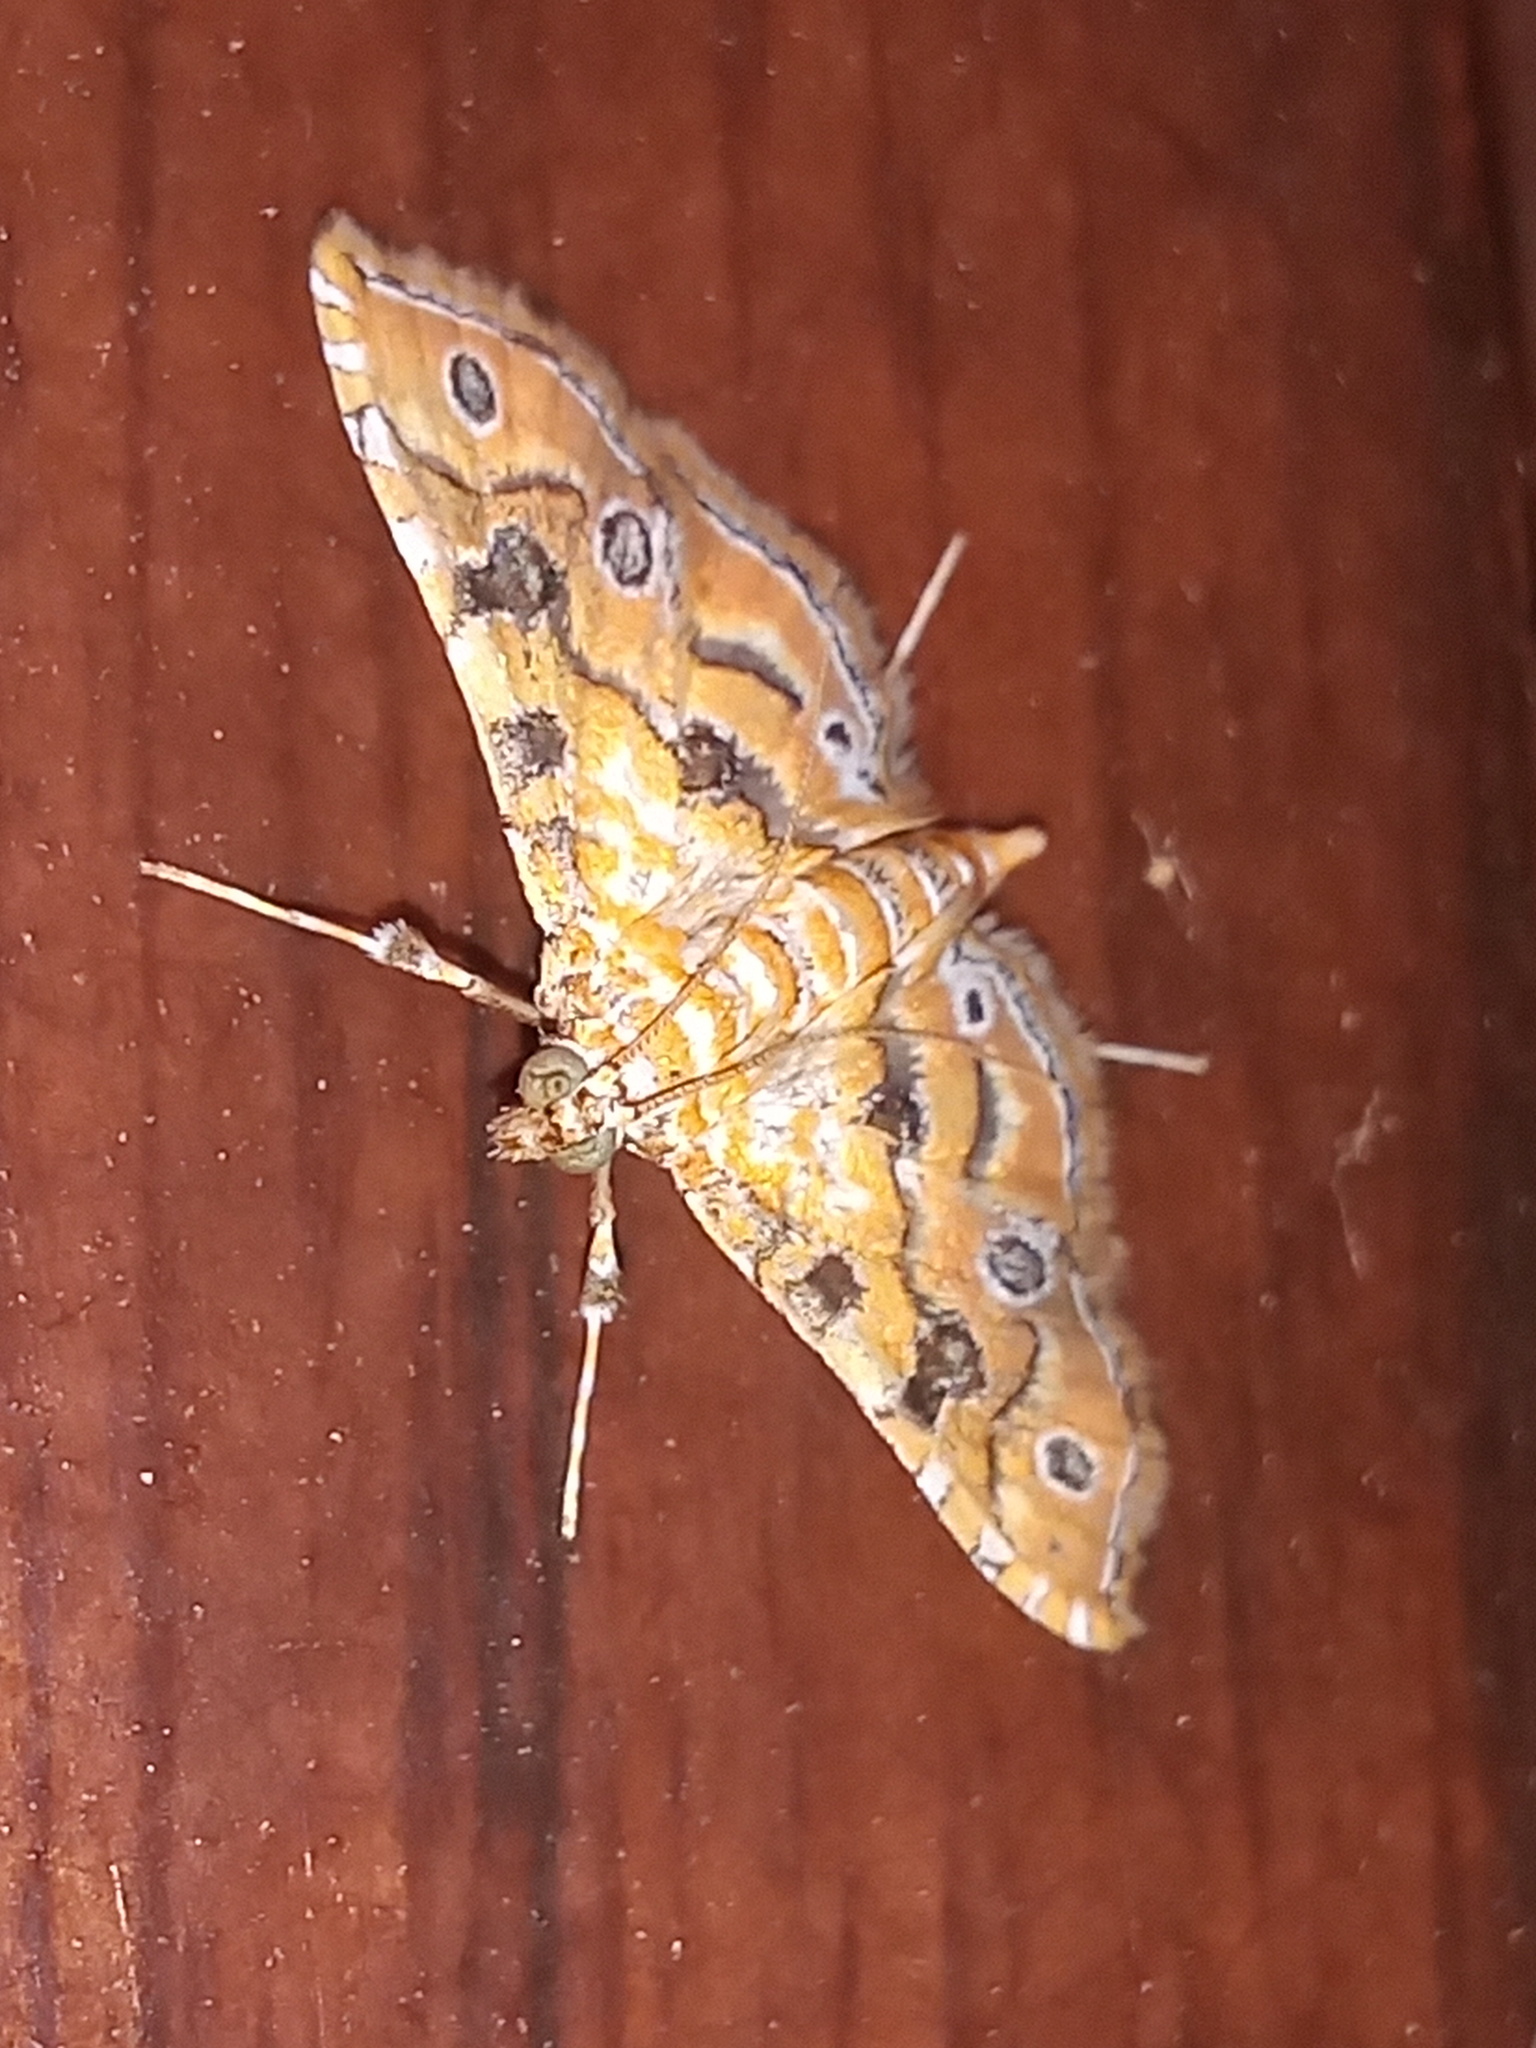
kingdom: Animalia
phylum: Arthropoda
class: Insecta
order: Lepidoptera
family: Crambidae
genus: Ommatospila
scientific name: Ommatospila narcaeusalis
